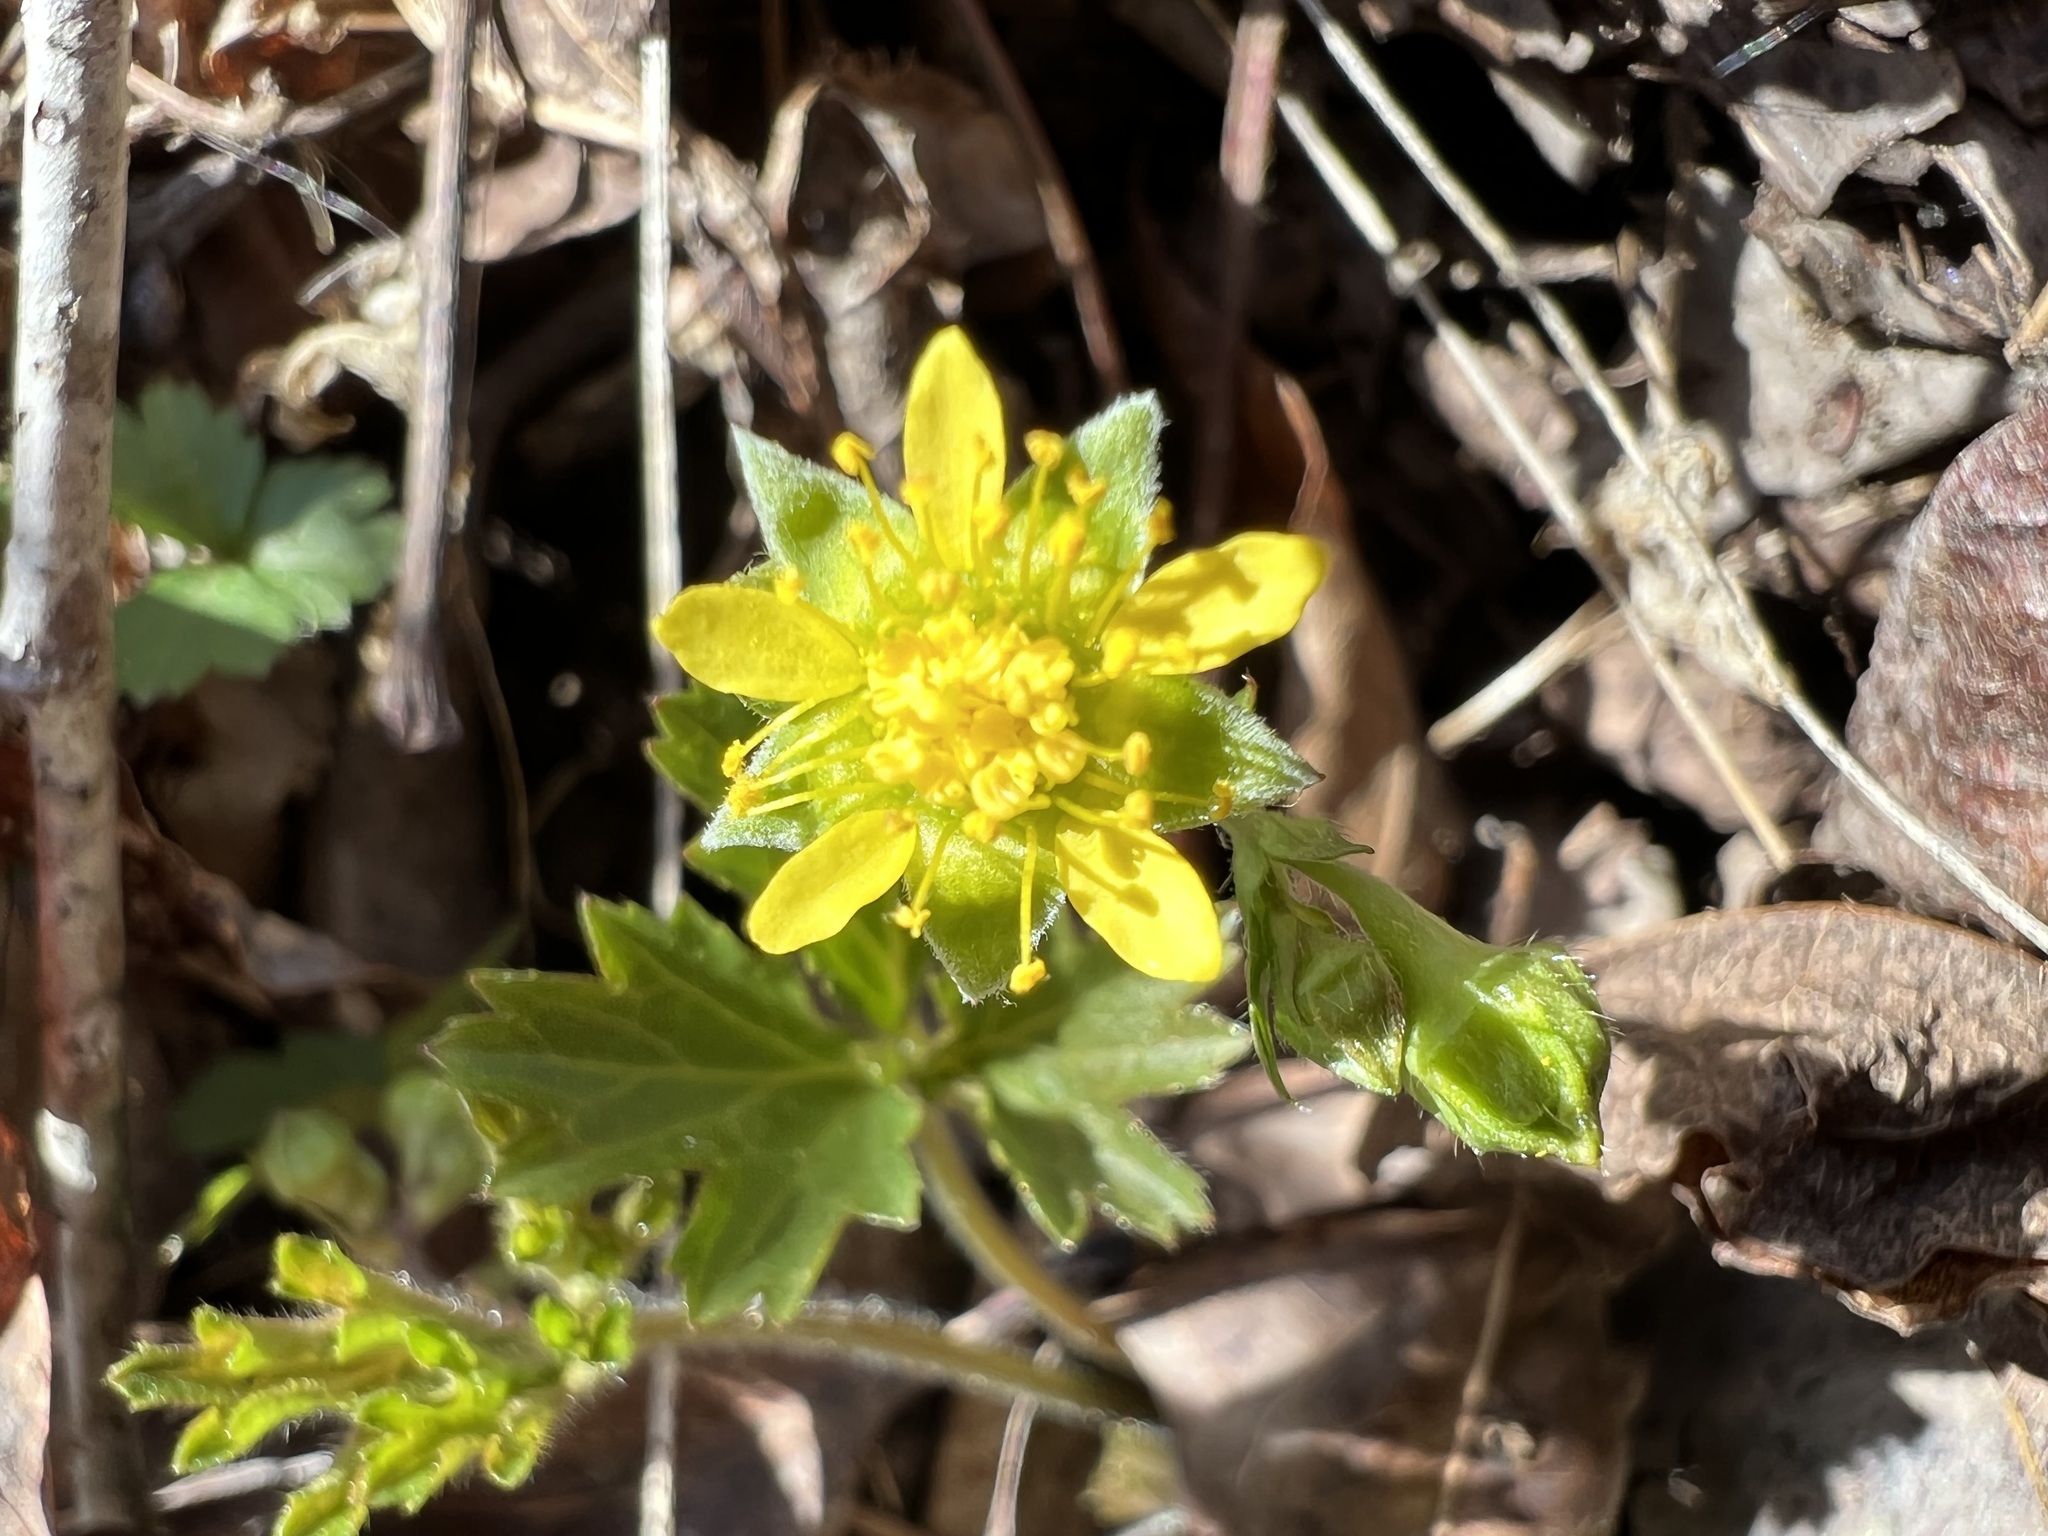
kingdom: Plantae
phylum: Tracheophyta
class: Magnoliopsida
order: Rosales
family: Rosaceae
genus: Geum
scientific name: Geum fragarioides
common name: Appalachian barren strawberry
